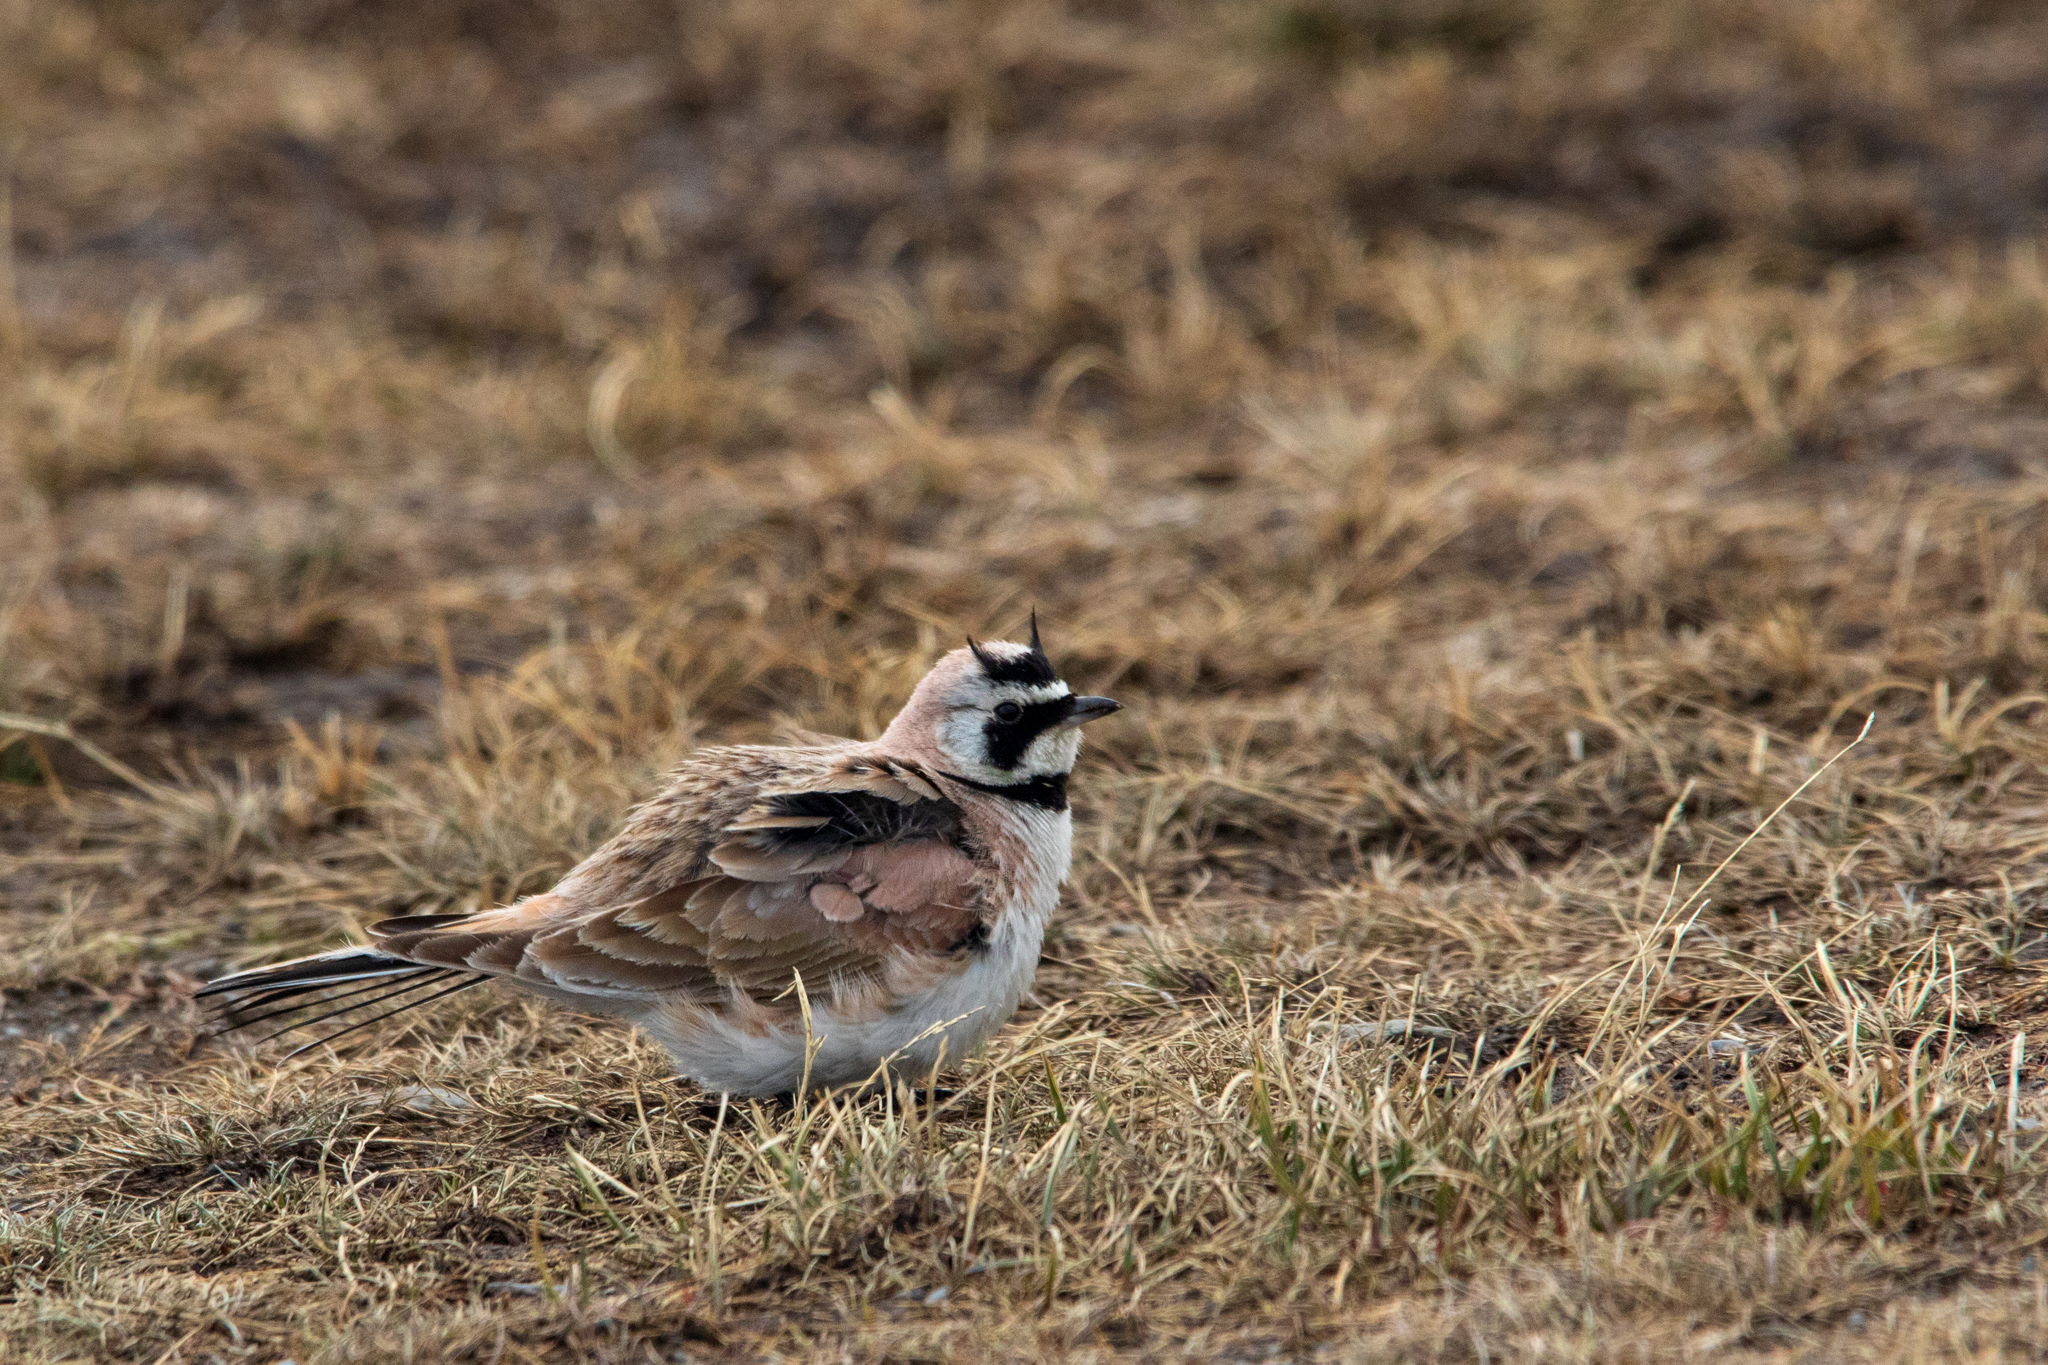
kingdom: Animalia
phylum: Chordata
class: Aves
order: Passeriformes
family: Alaudidae
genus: Eremophila
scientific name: Eremophila alpestris
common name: Horned lark
